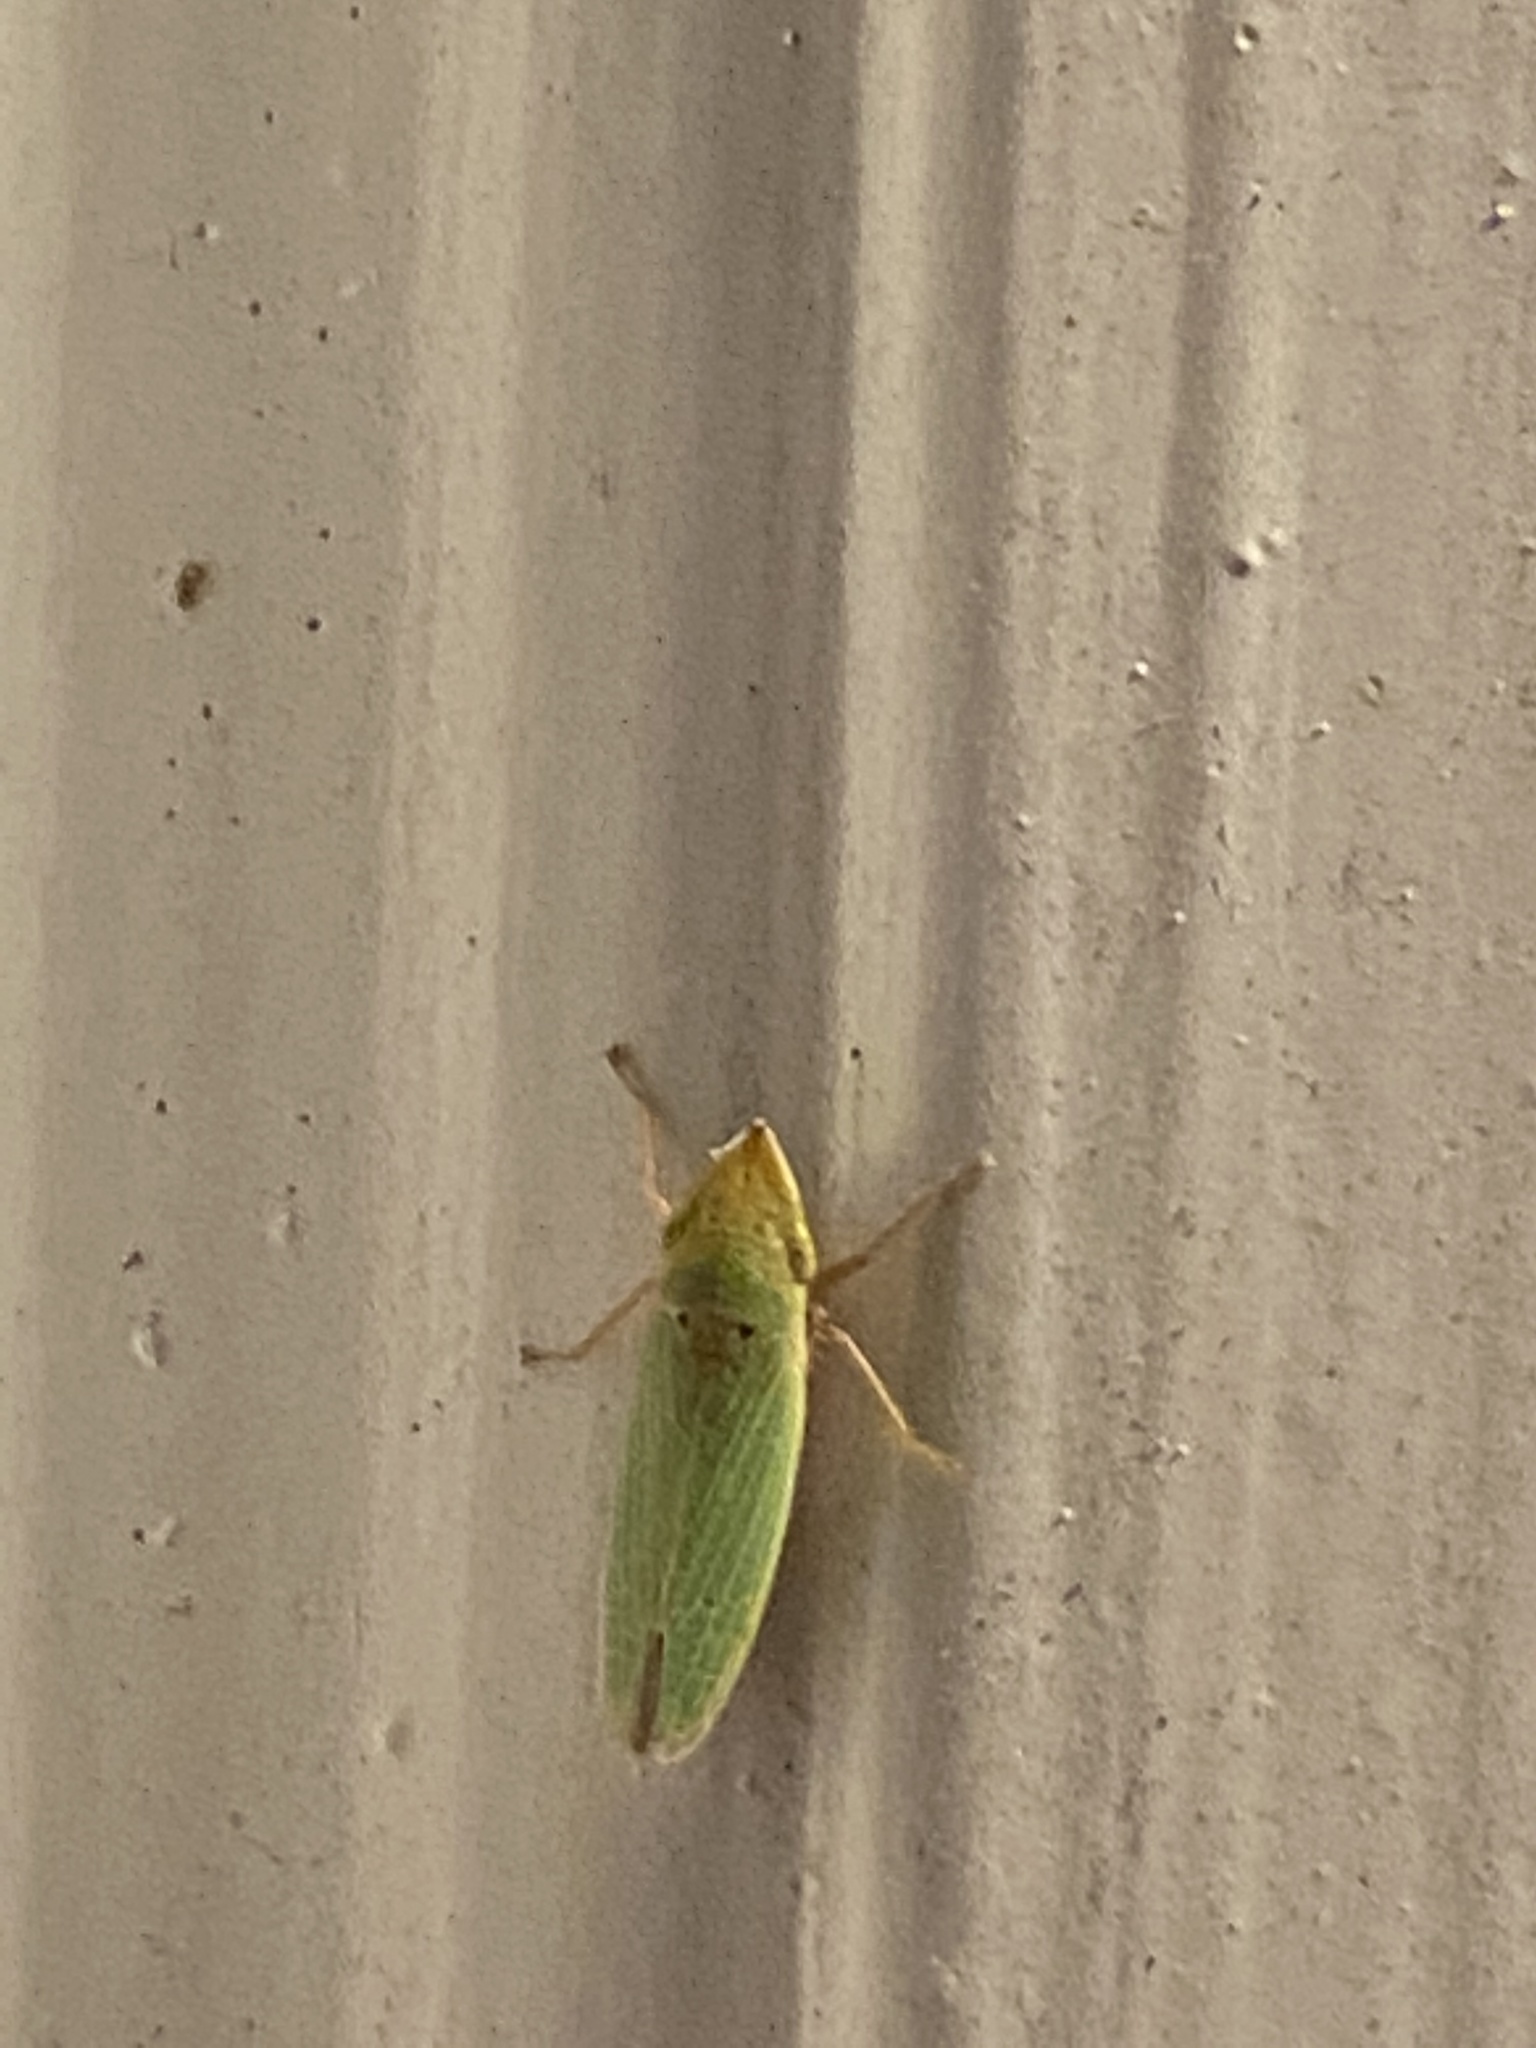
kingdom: Animalia
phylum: Arthropoda
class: Insecta
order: Hemiptera
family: Cicadellidae
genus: Draeculacephala
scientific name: Draeculacephala balli
